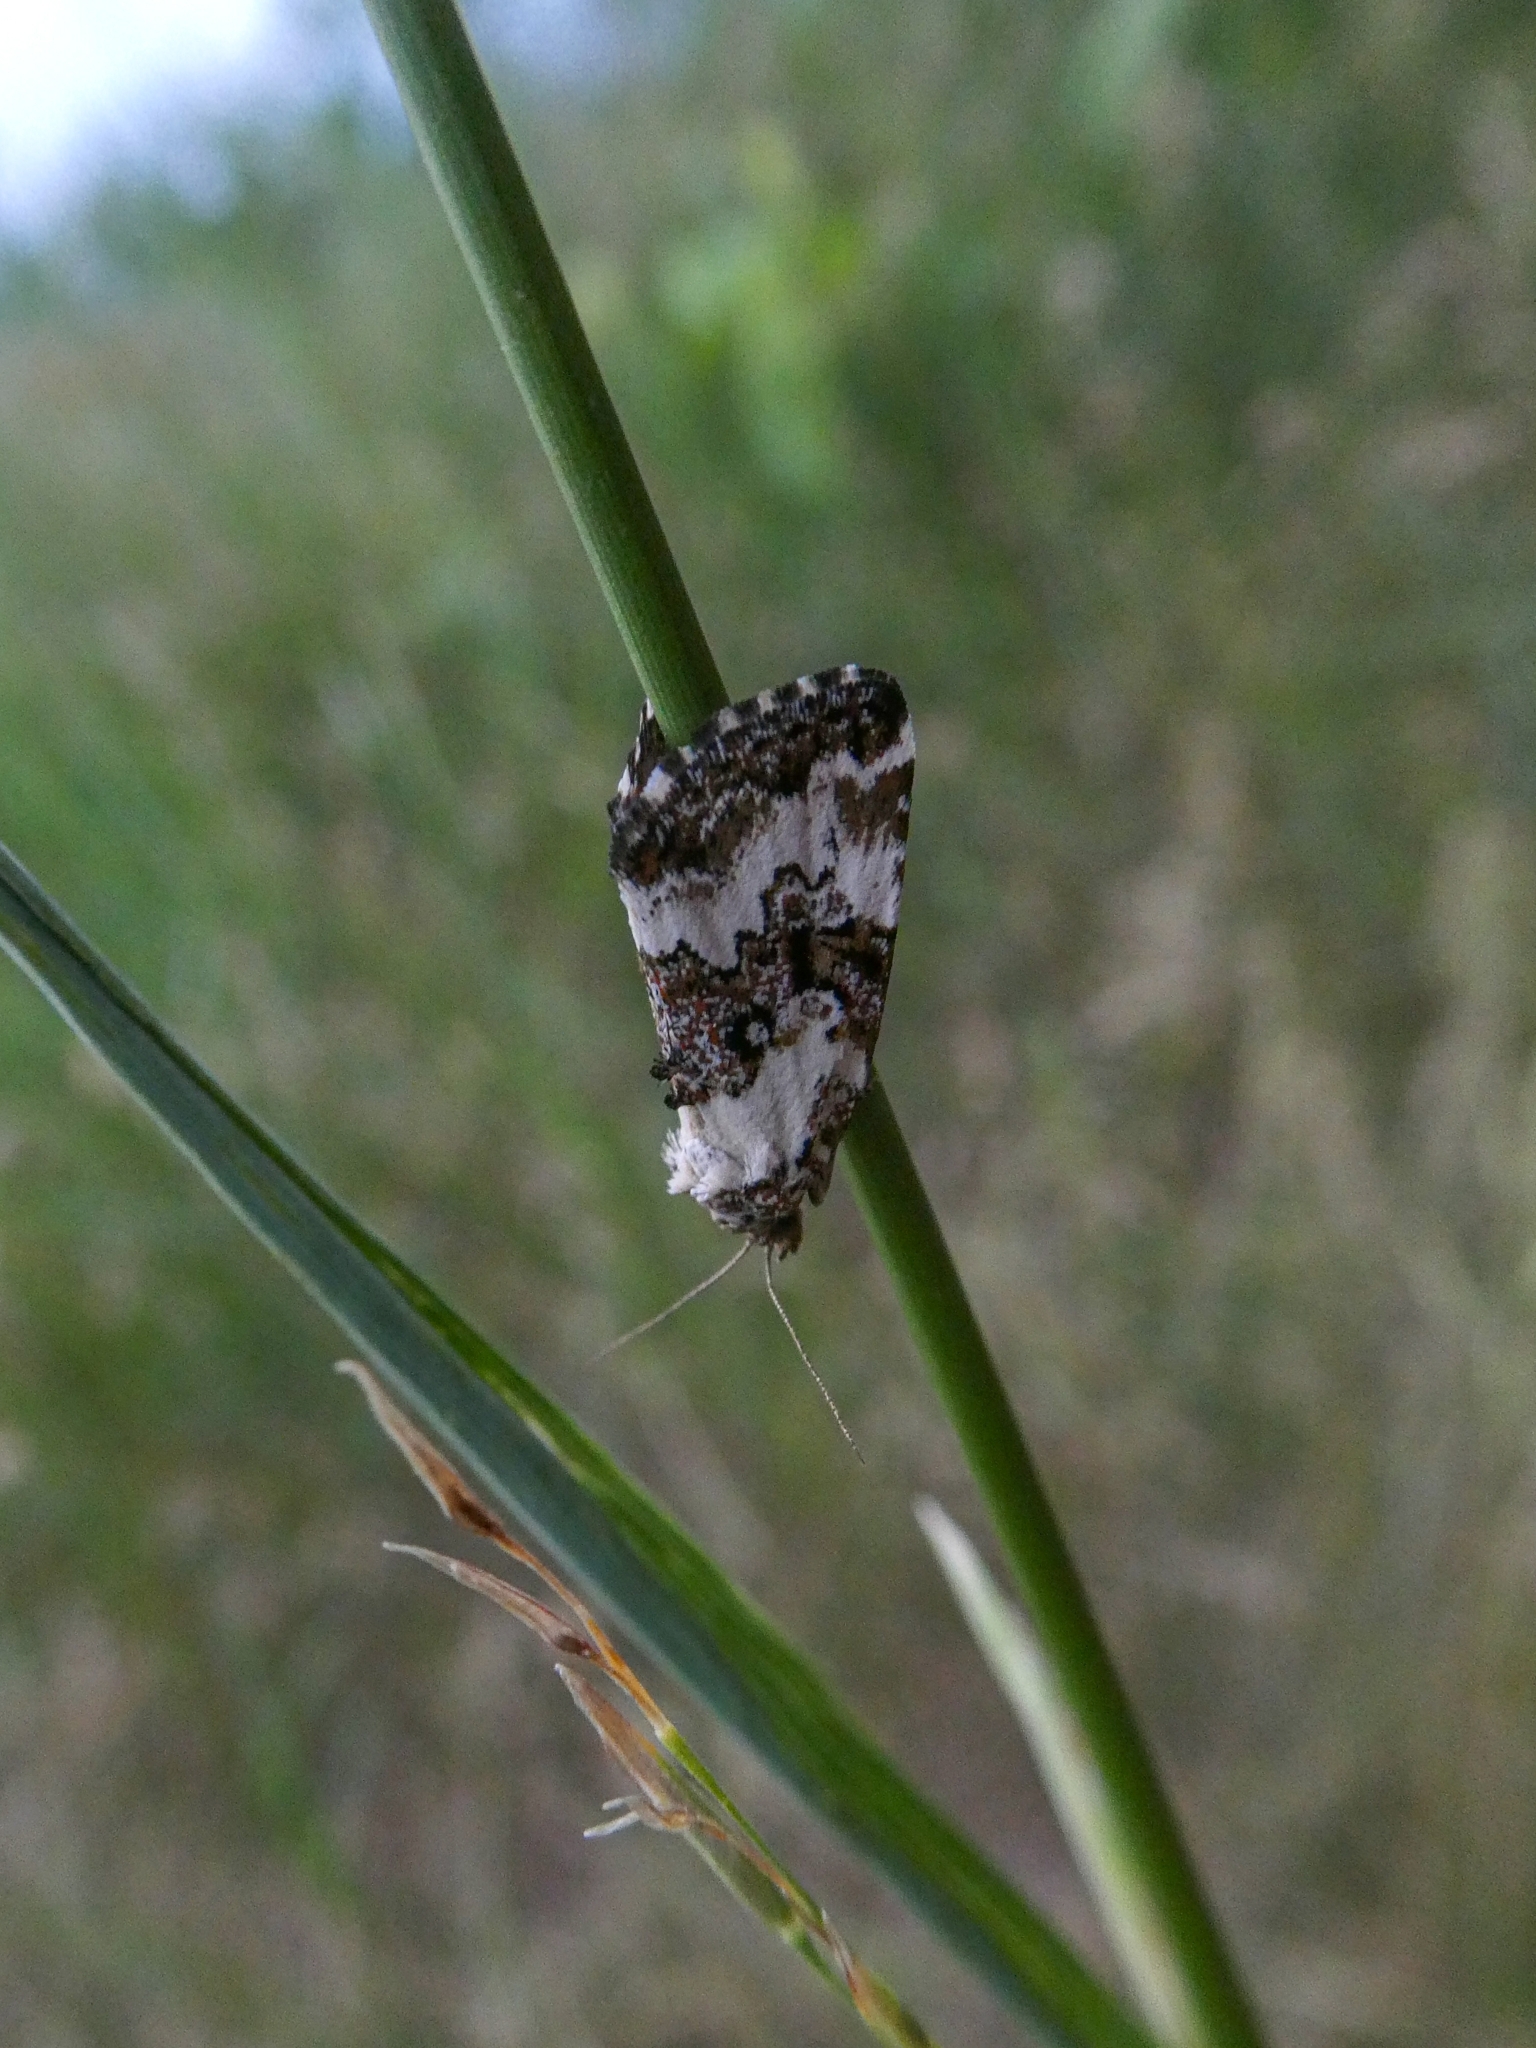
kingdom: Animalia
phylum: Arthropoda
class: Insecta
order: Lepidoptera
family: Noctuidae
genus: Deltote
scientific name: Deltote deceptoria
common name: Pretty marbled
